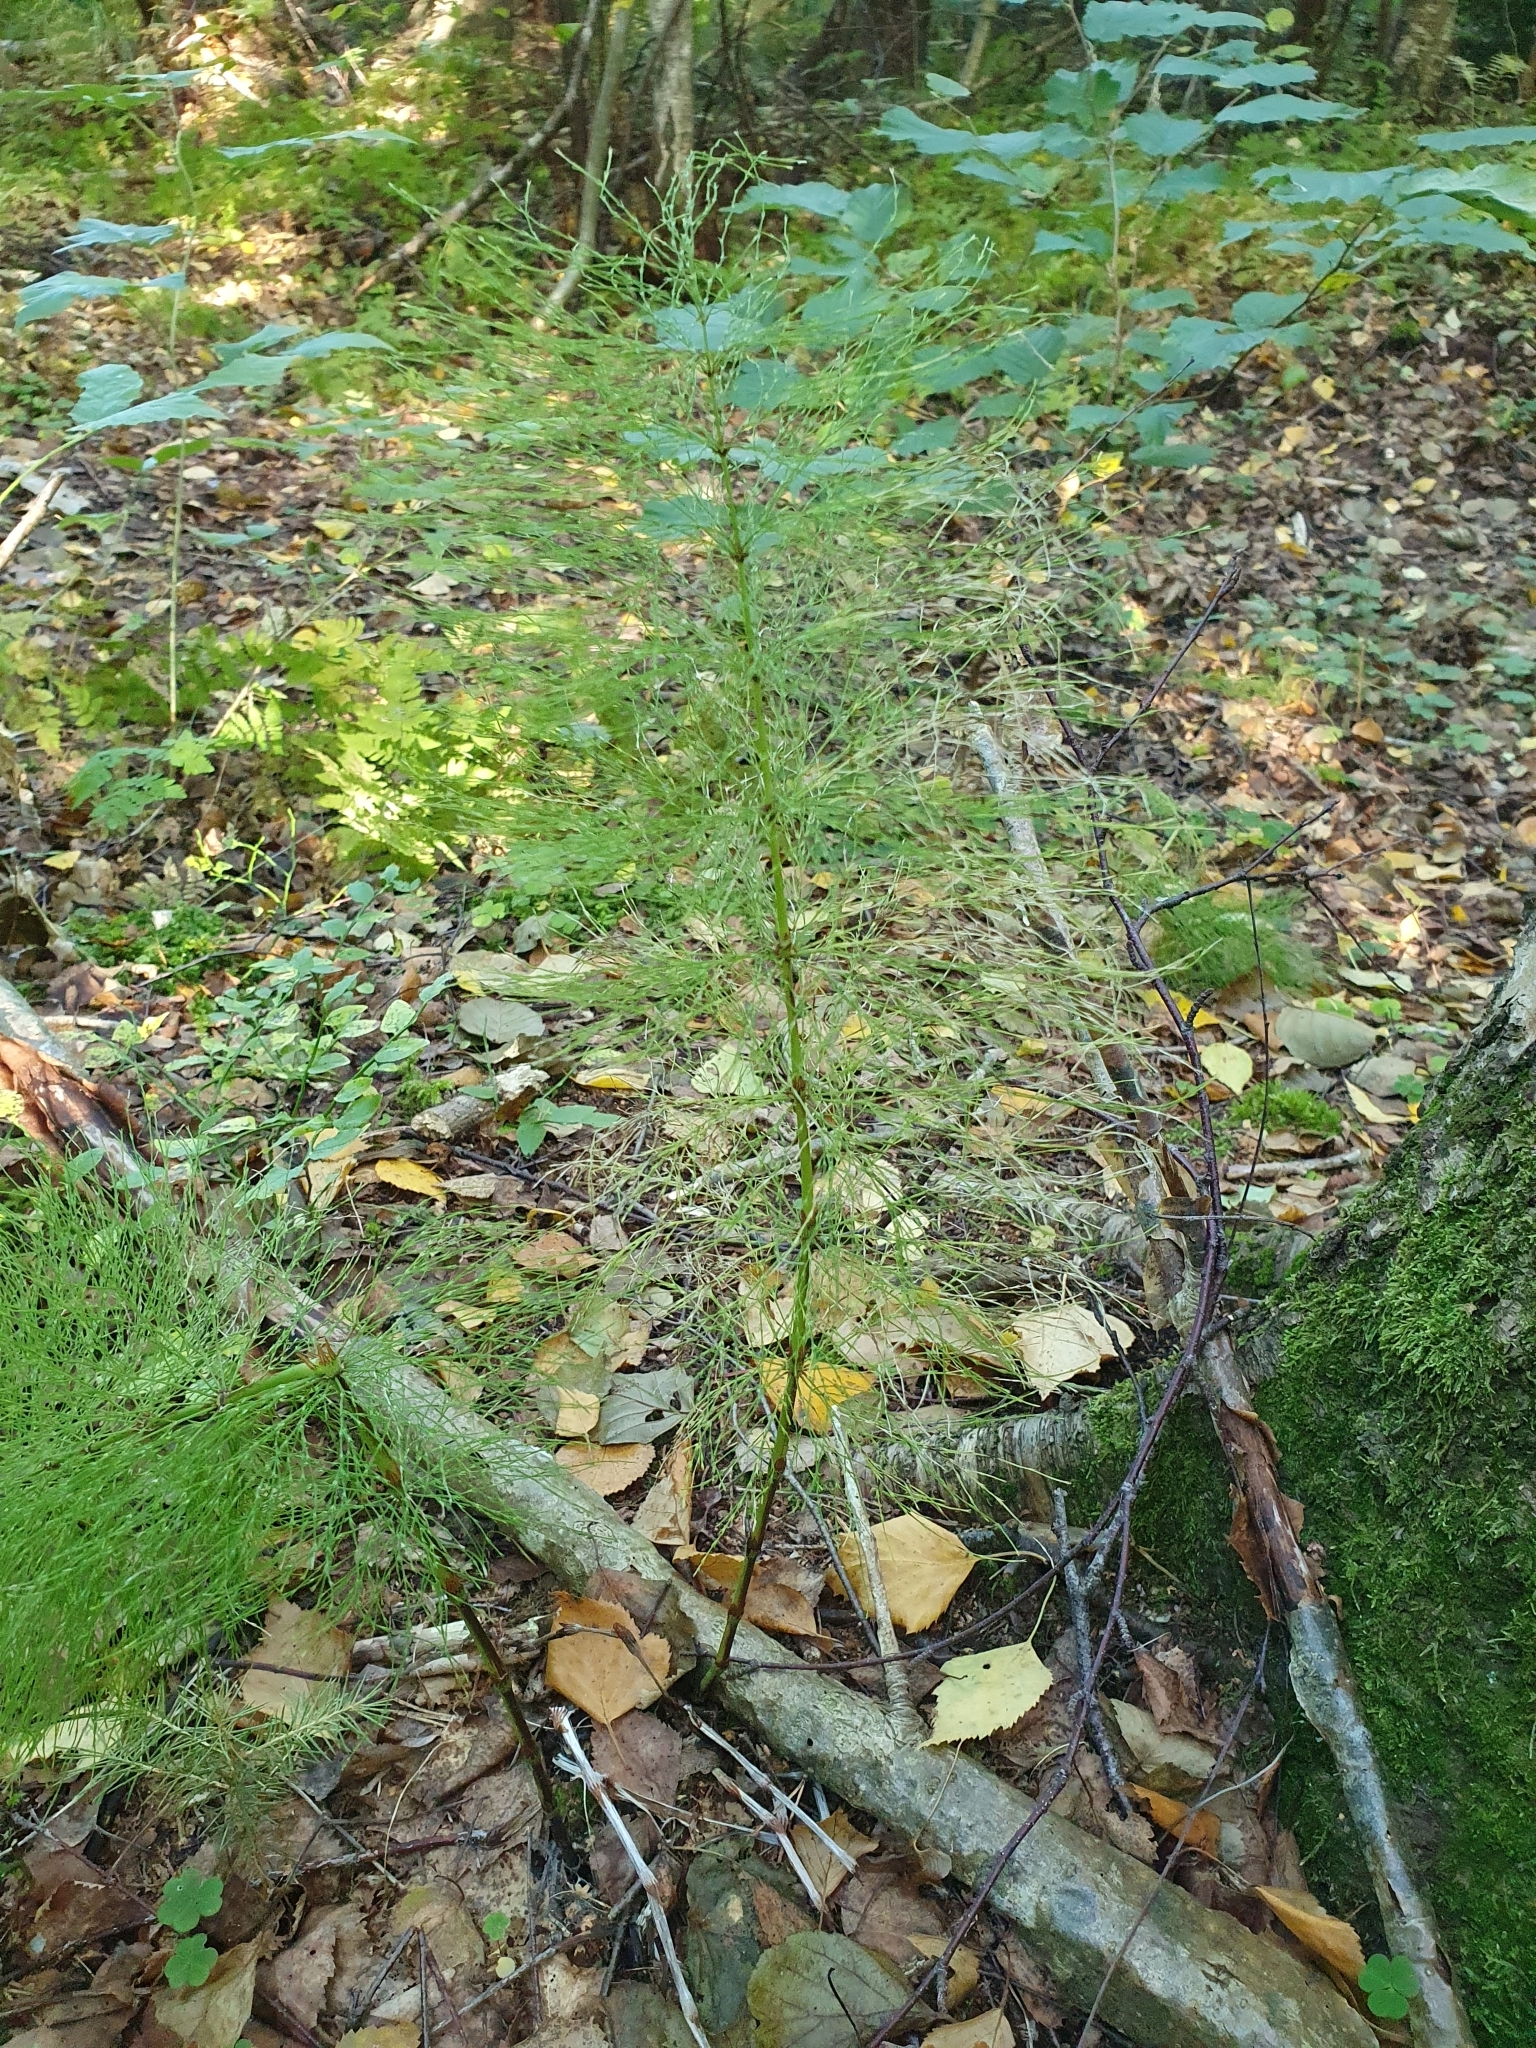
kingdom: Plantae
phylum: Tracheophyta
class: Polypodiopsida
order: Equisetales
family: Equisetaceae
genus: Equisetum
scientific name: Equisetum sylvaticum
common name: Wood horsetail
